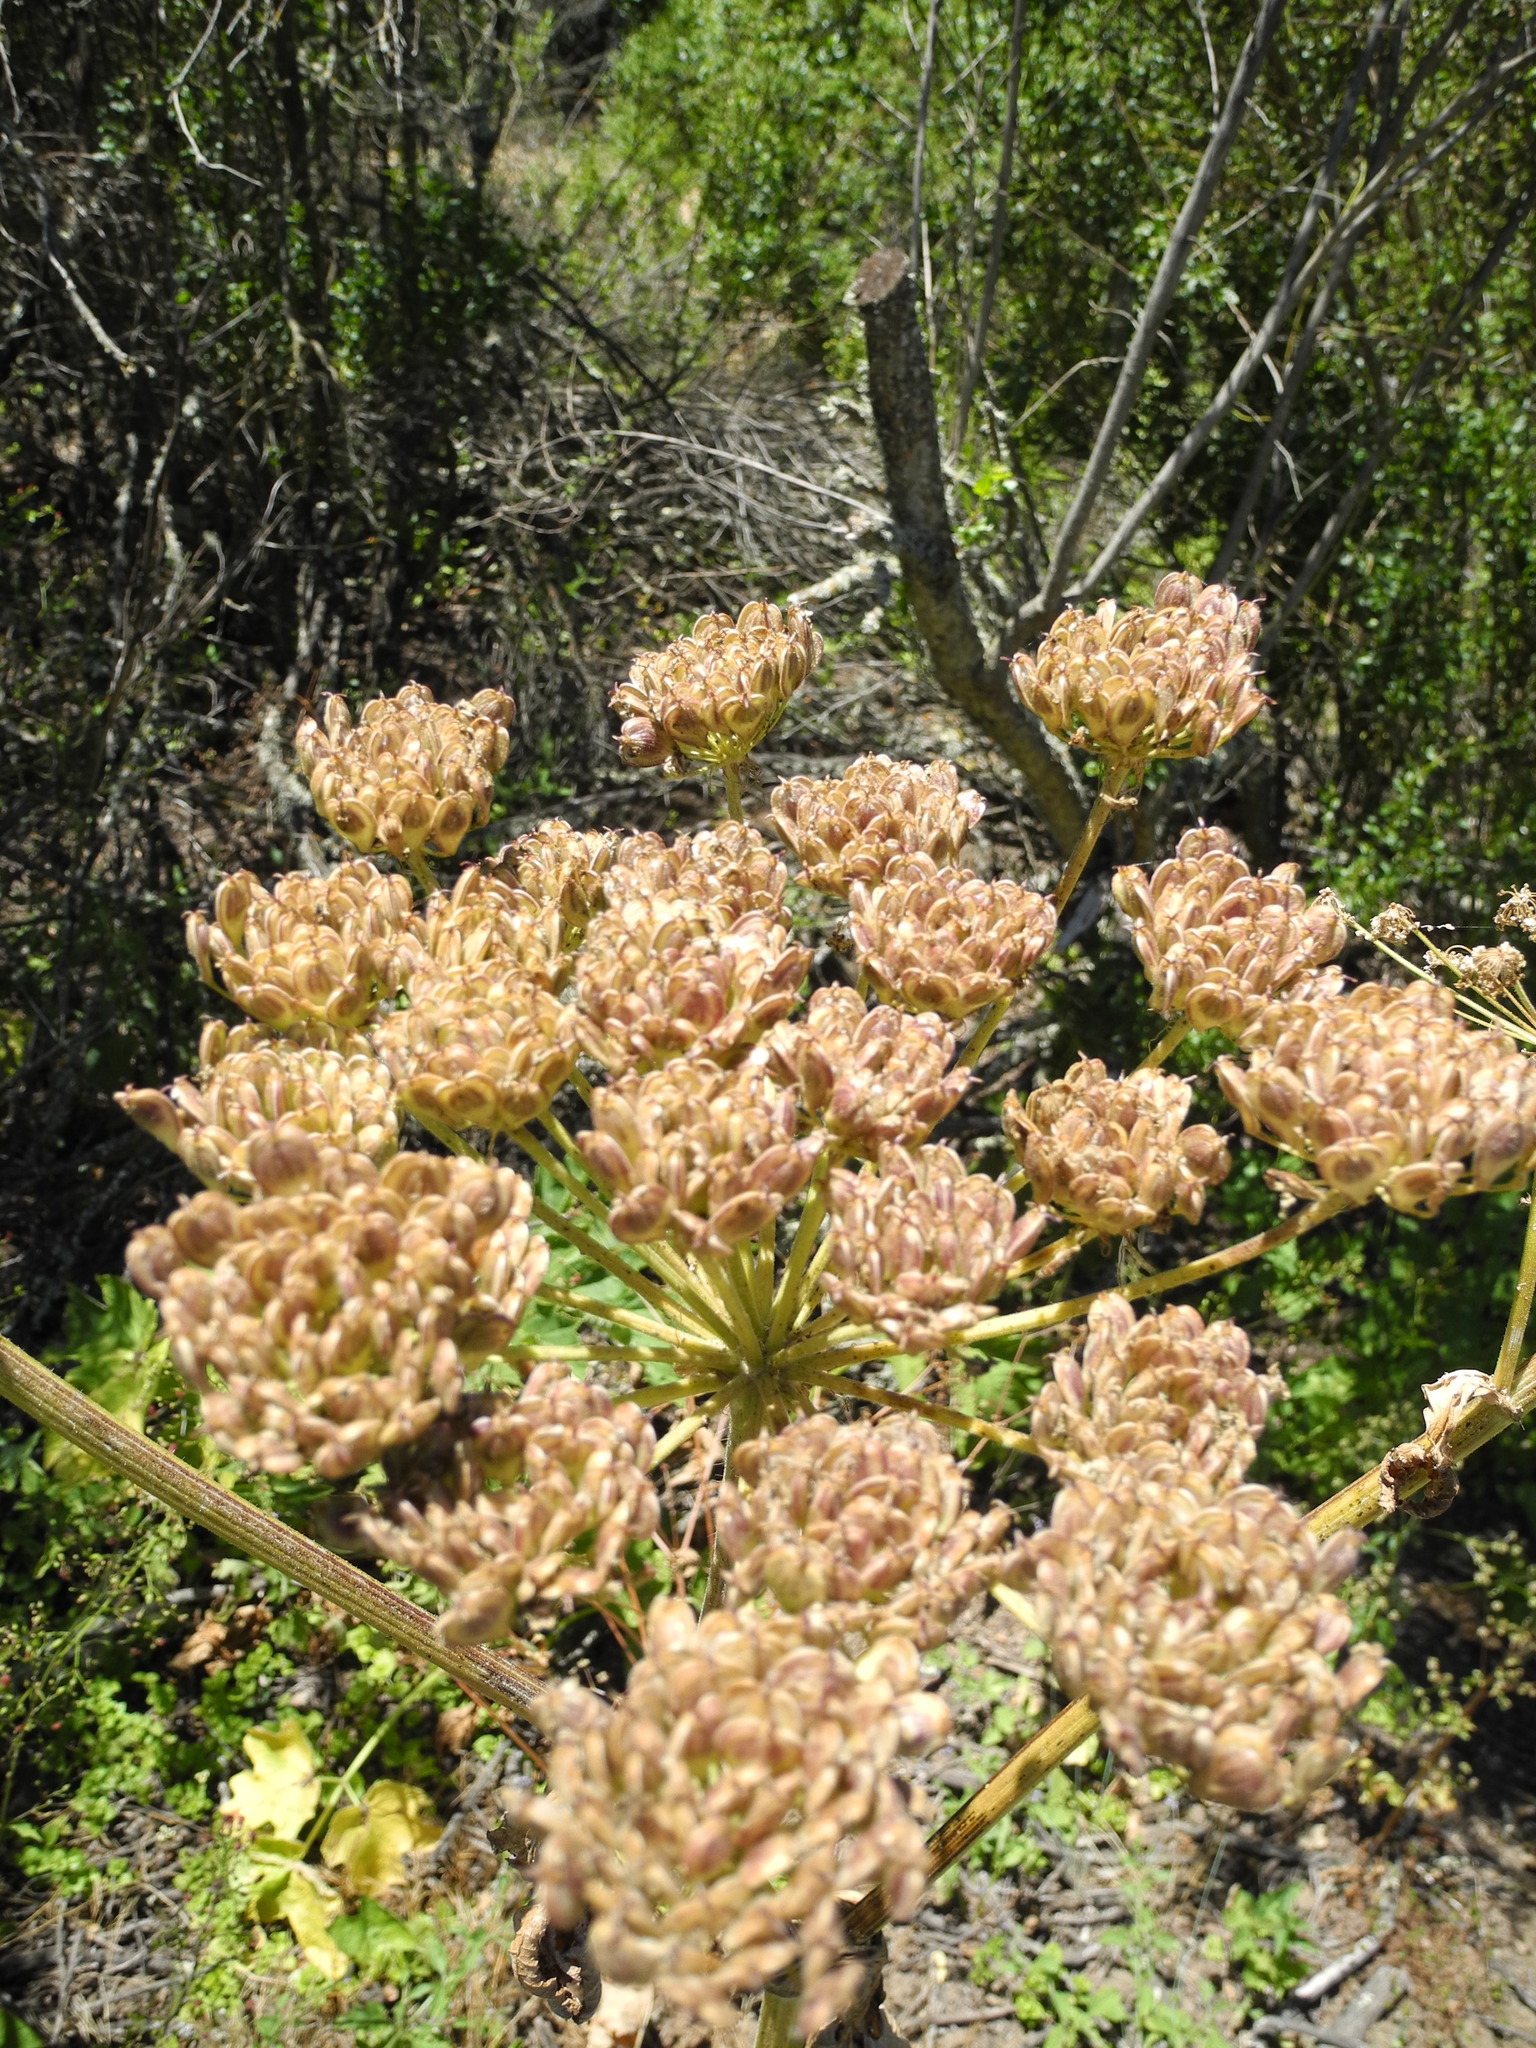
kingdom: Plantae
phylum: Tracheophyta
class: Magnoliopsida
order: Apiales
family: Apiaceae
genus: Heracleum
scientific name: Heracleum maximum
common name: American cow parsnip
